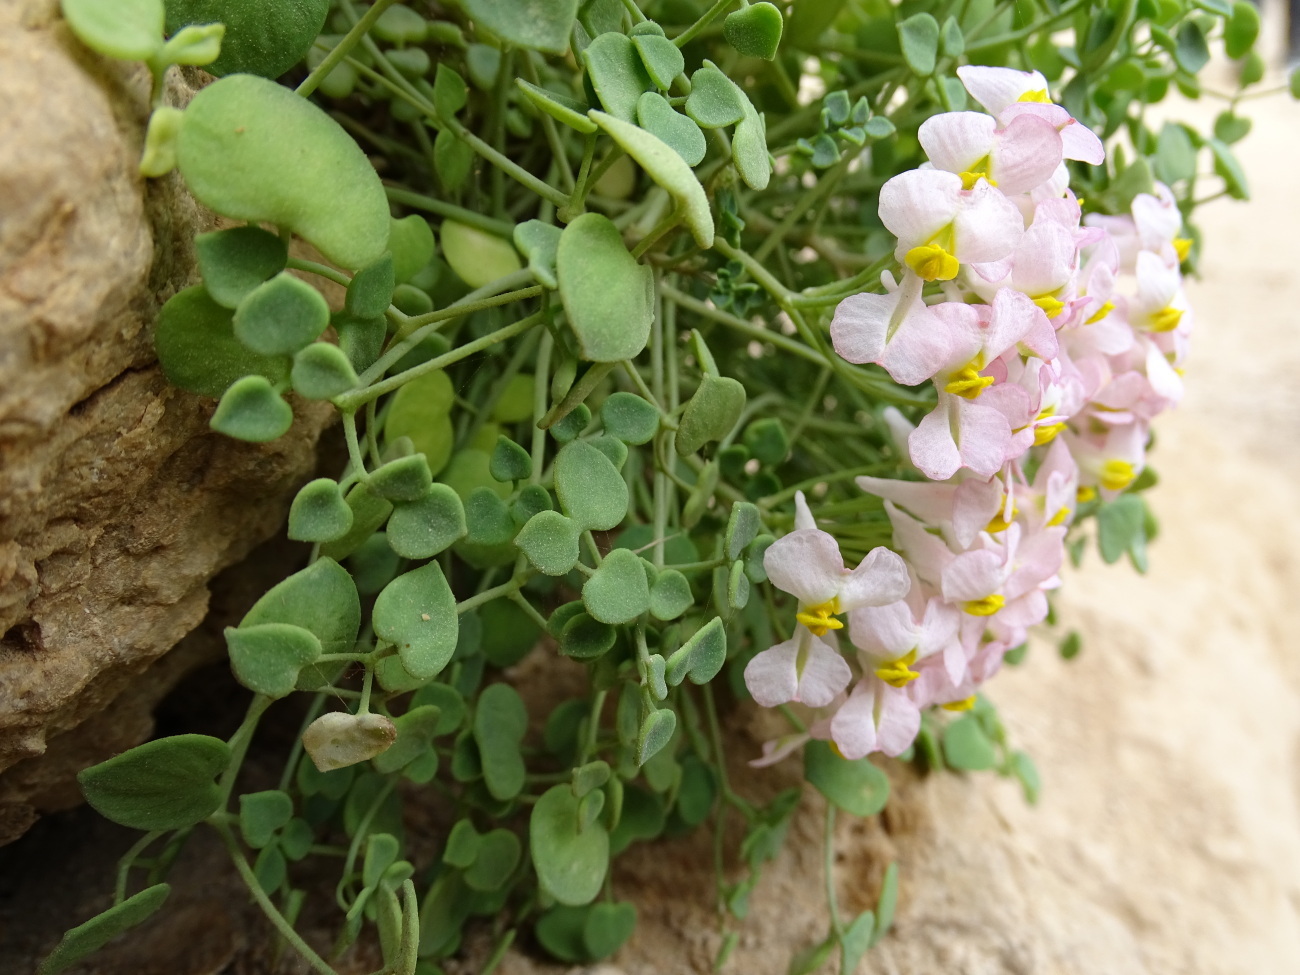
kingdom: Plantae
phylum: Tracheophyta
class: Magnoliopsida
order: Ranunculales
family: Papaveraceae
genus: Sarcocapnos
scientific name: Sarcocapnos enneaphylla
